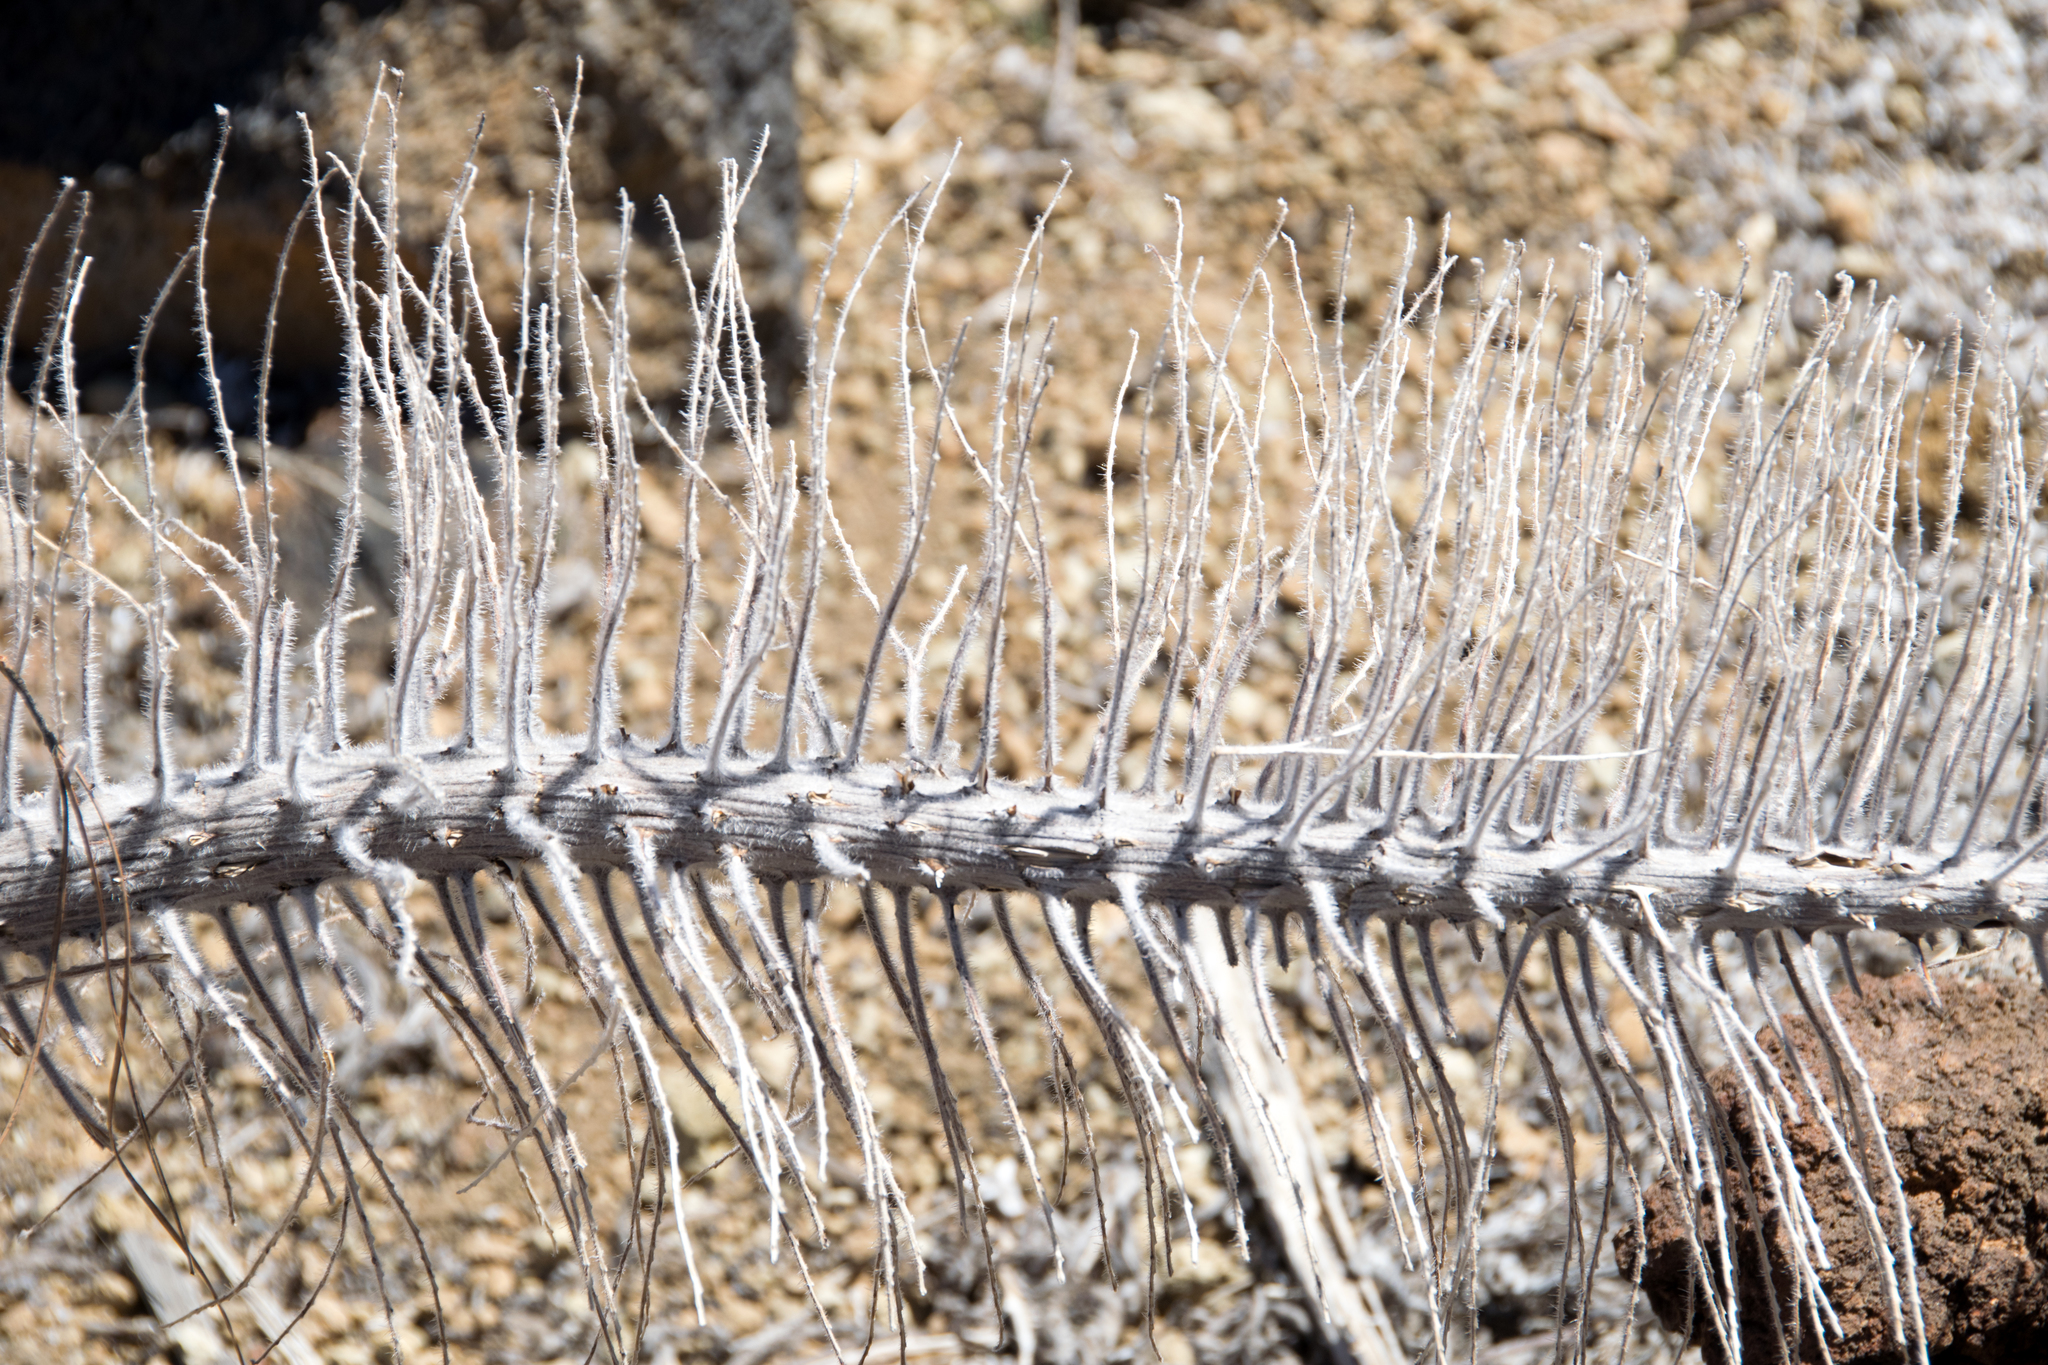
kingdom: Plantae
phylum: Tracheophyta
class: Magnoliopsida
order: Boraginales
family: Boraginaceae
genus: Echium
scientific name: Echium wildpretii
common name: Tower-of-jewels
